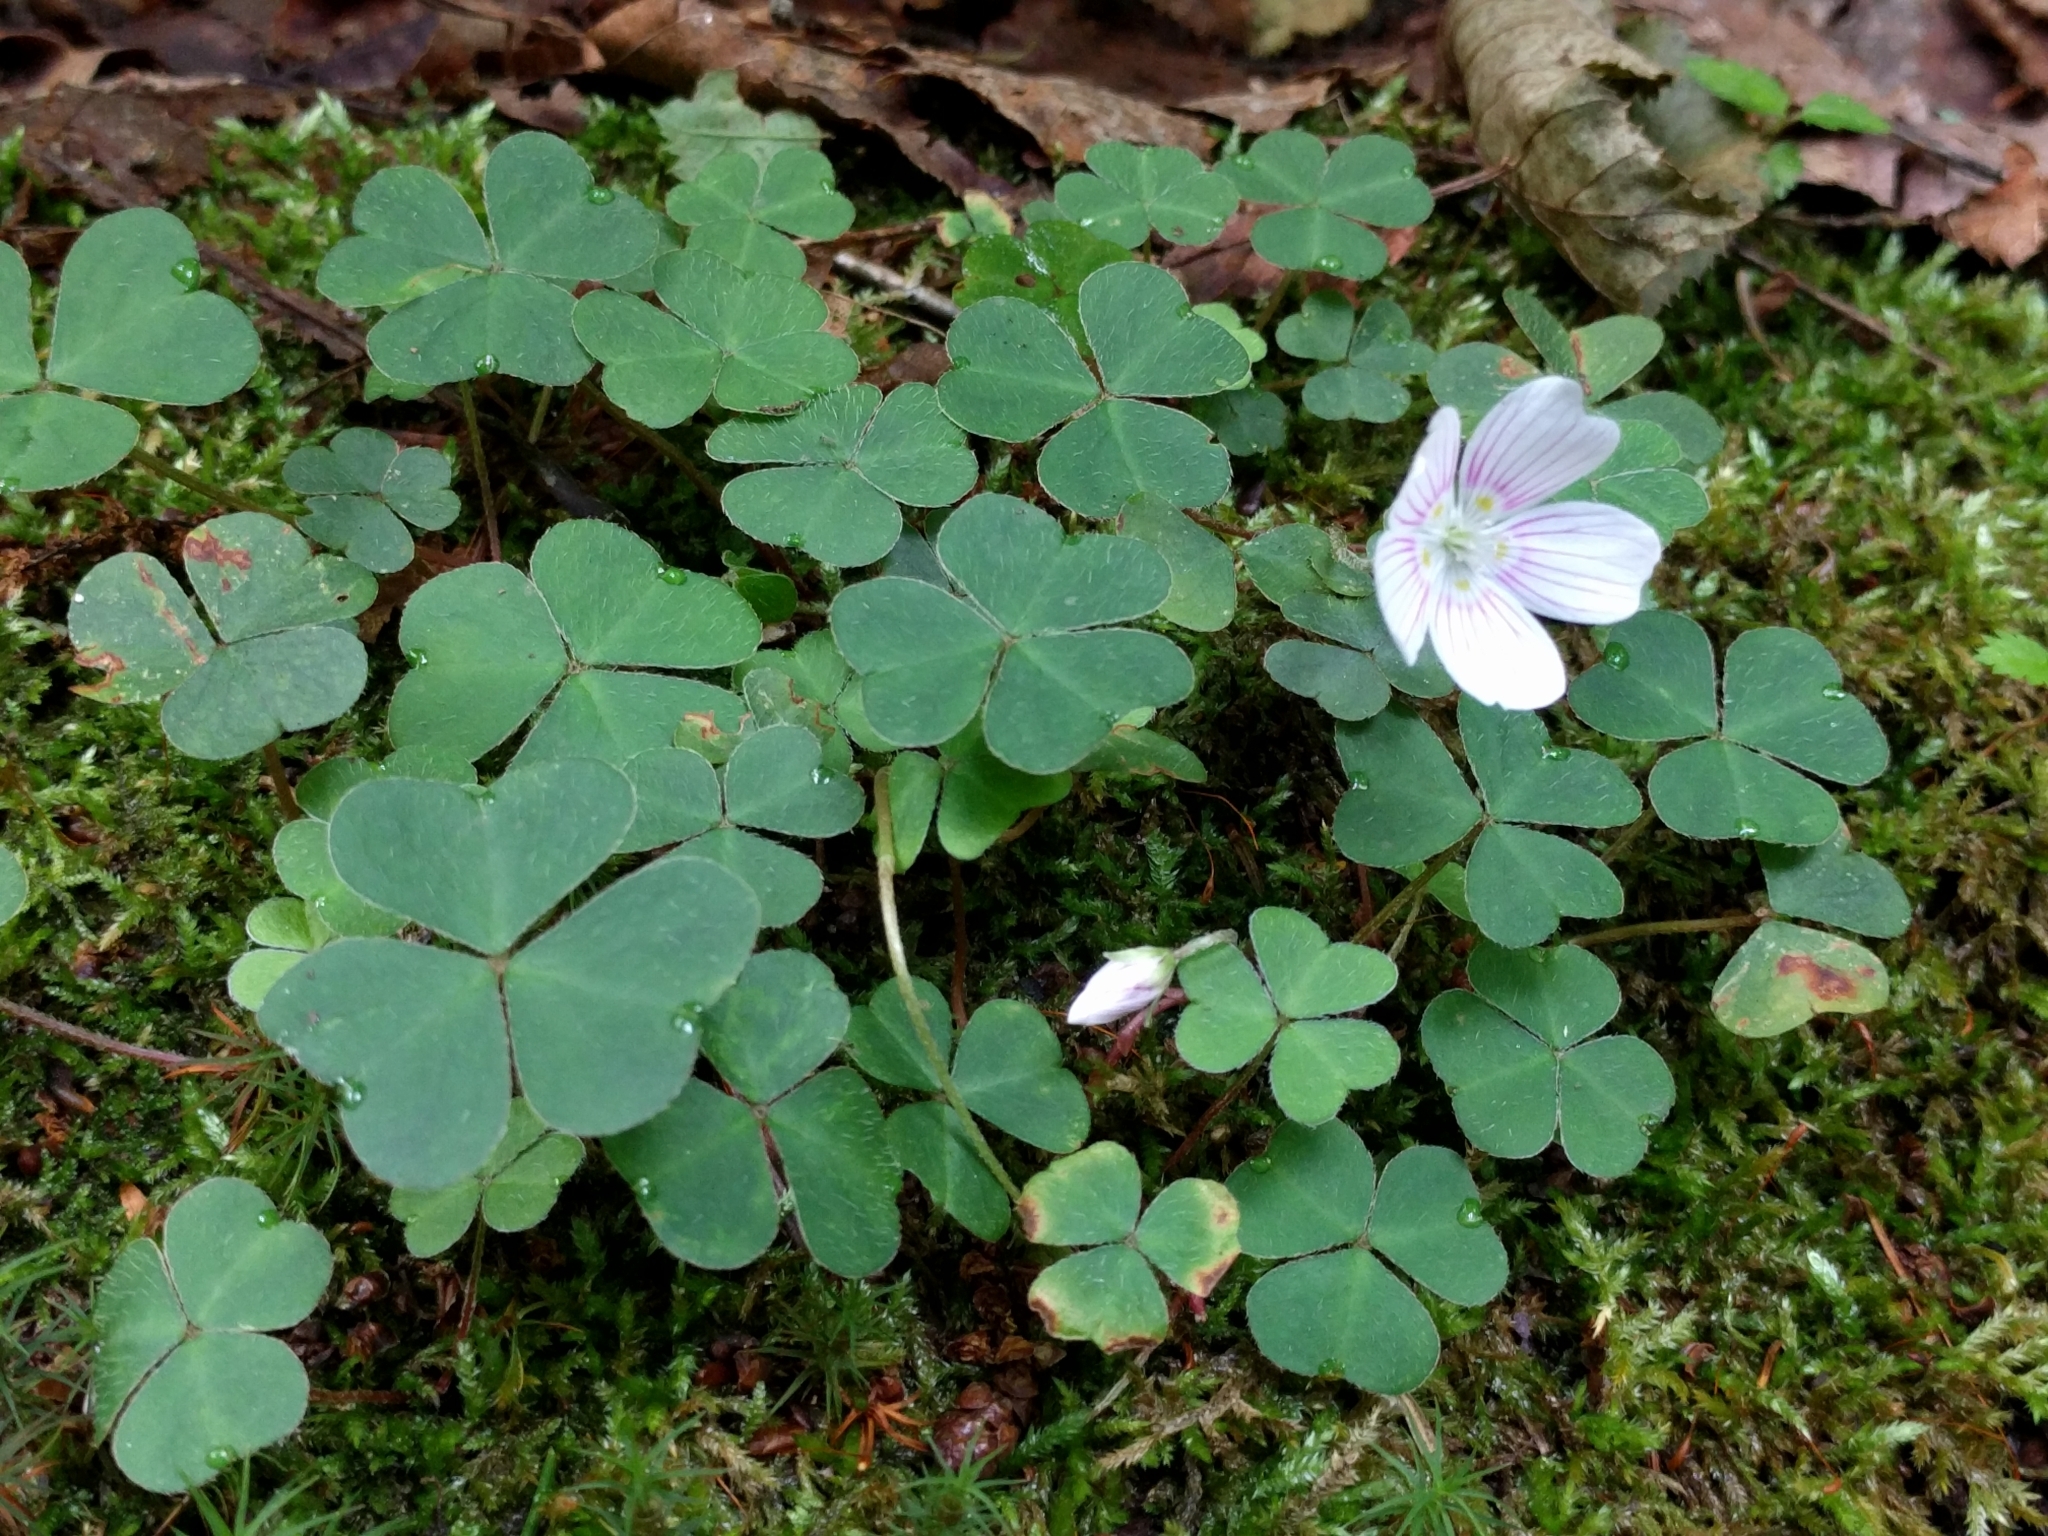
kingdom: Plantae
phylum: Tracheophyta
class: Magnoliopsida
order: Oxalidales
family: Oxalidaceae
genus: Oxalis
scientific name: Oxalis montana
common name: American wood-sorrel
